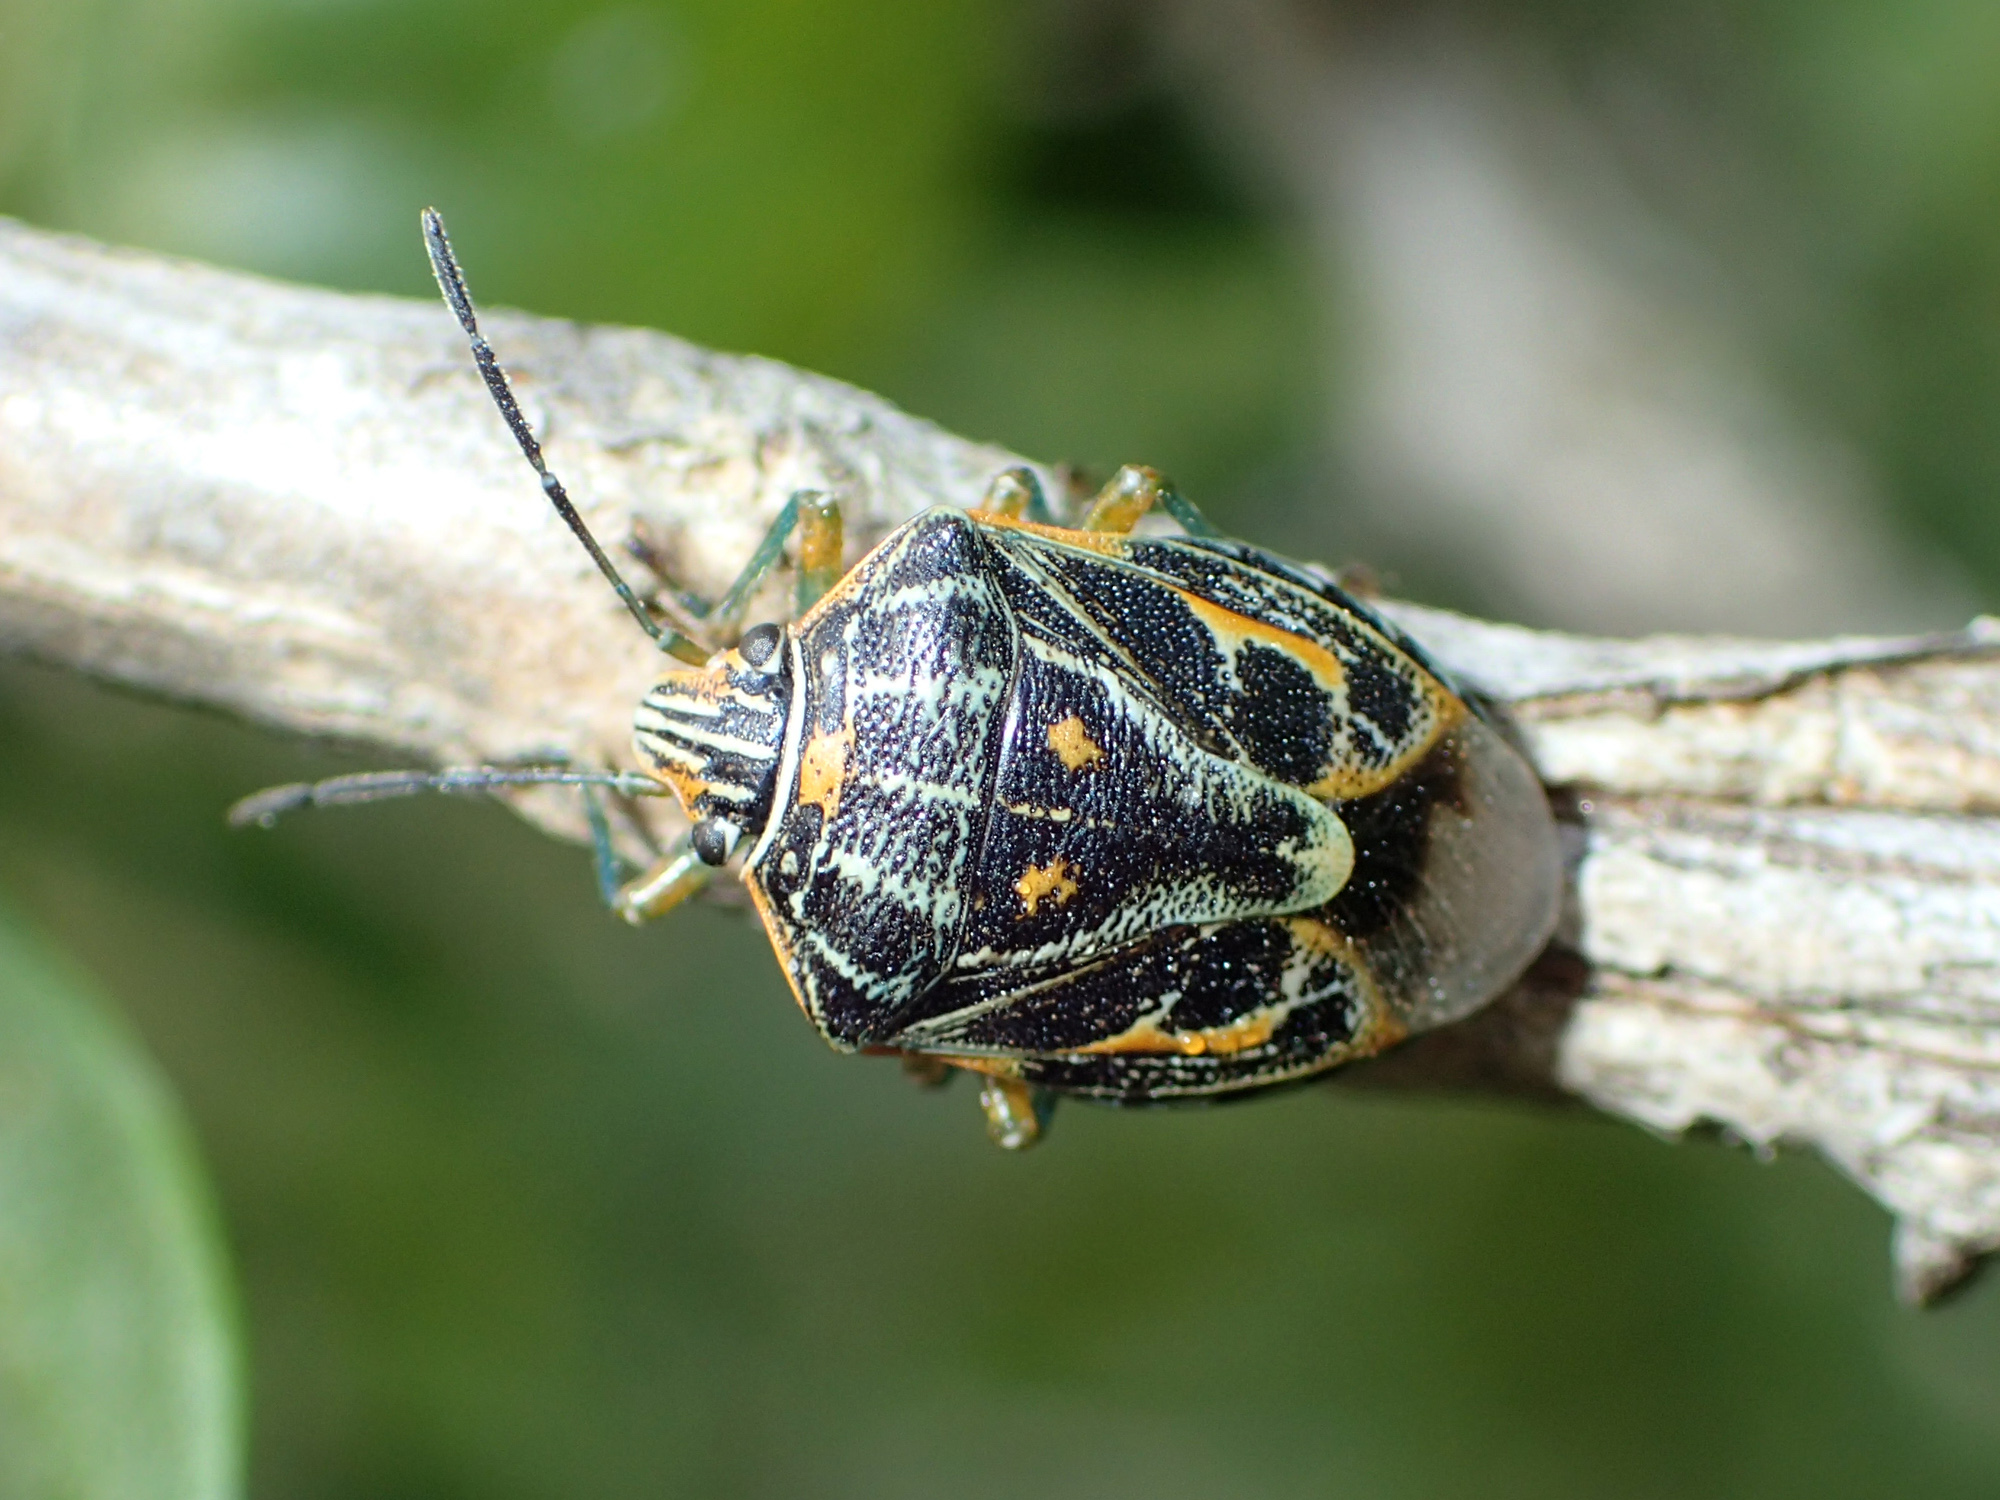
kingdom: Animalia
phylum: Arthropoda
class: Insecta
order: Hemiptera
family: Pentatomidae
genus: Antestiopsis
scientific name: Antestiopsis thunbergii
